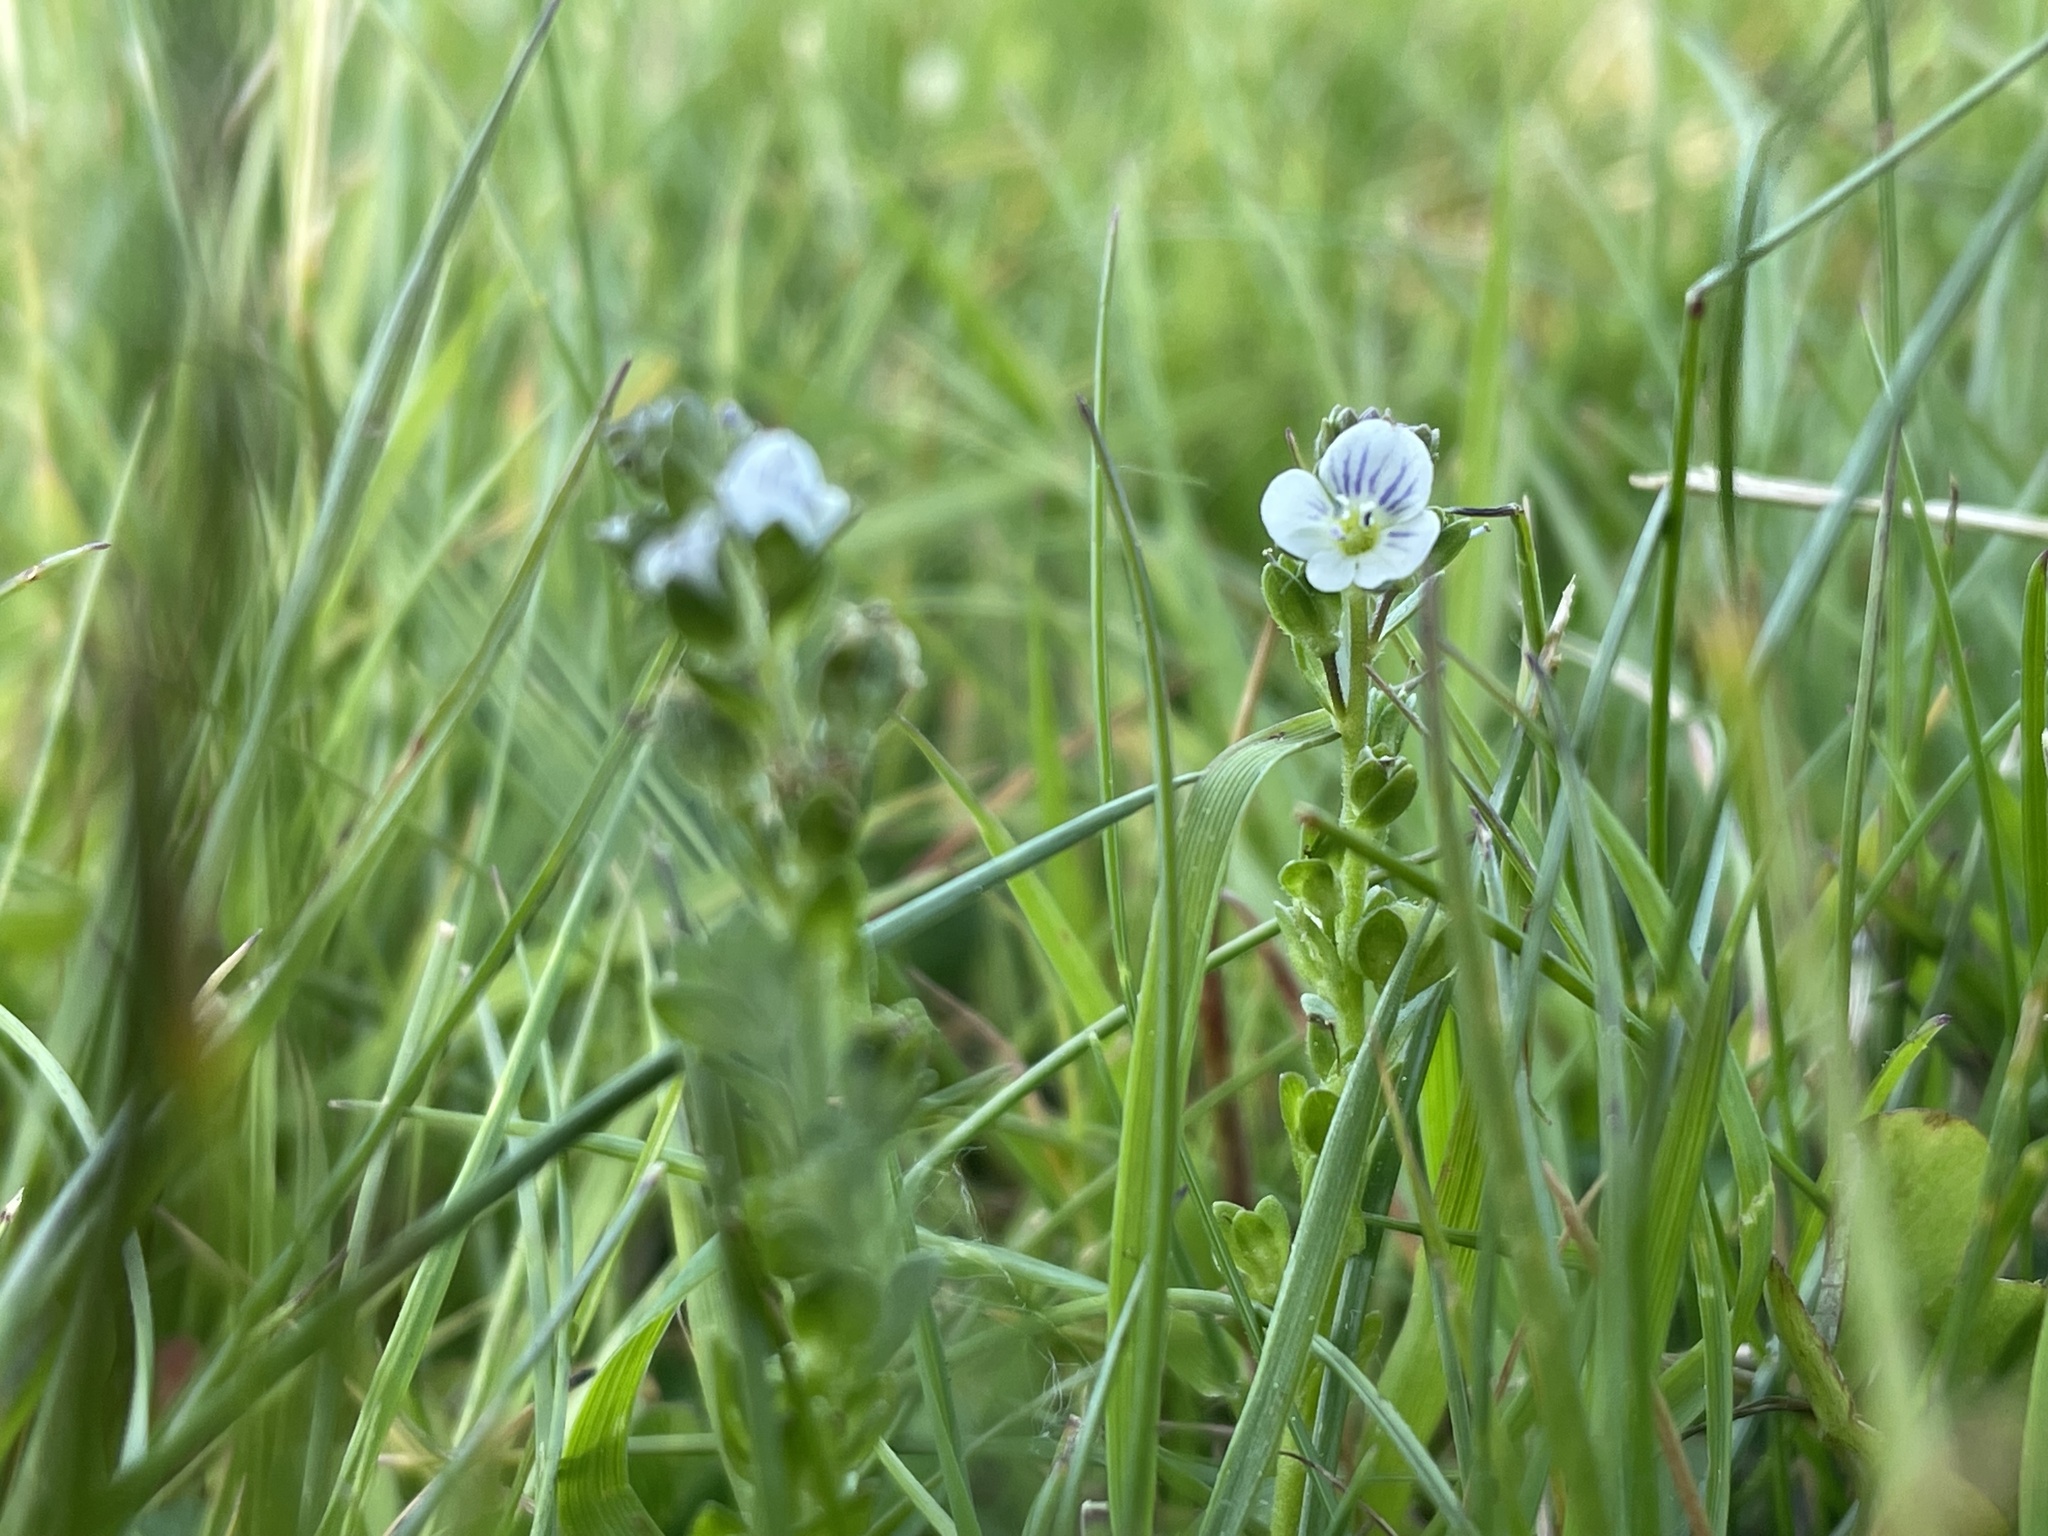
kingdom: Plantae
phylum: Tracheophyta
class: Magnoliopsida
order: Lamiales
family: Plantaginaceae
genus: Veronica
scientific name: Veronica serpyllifolia
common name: Thyme-leaved speedwell
